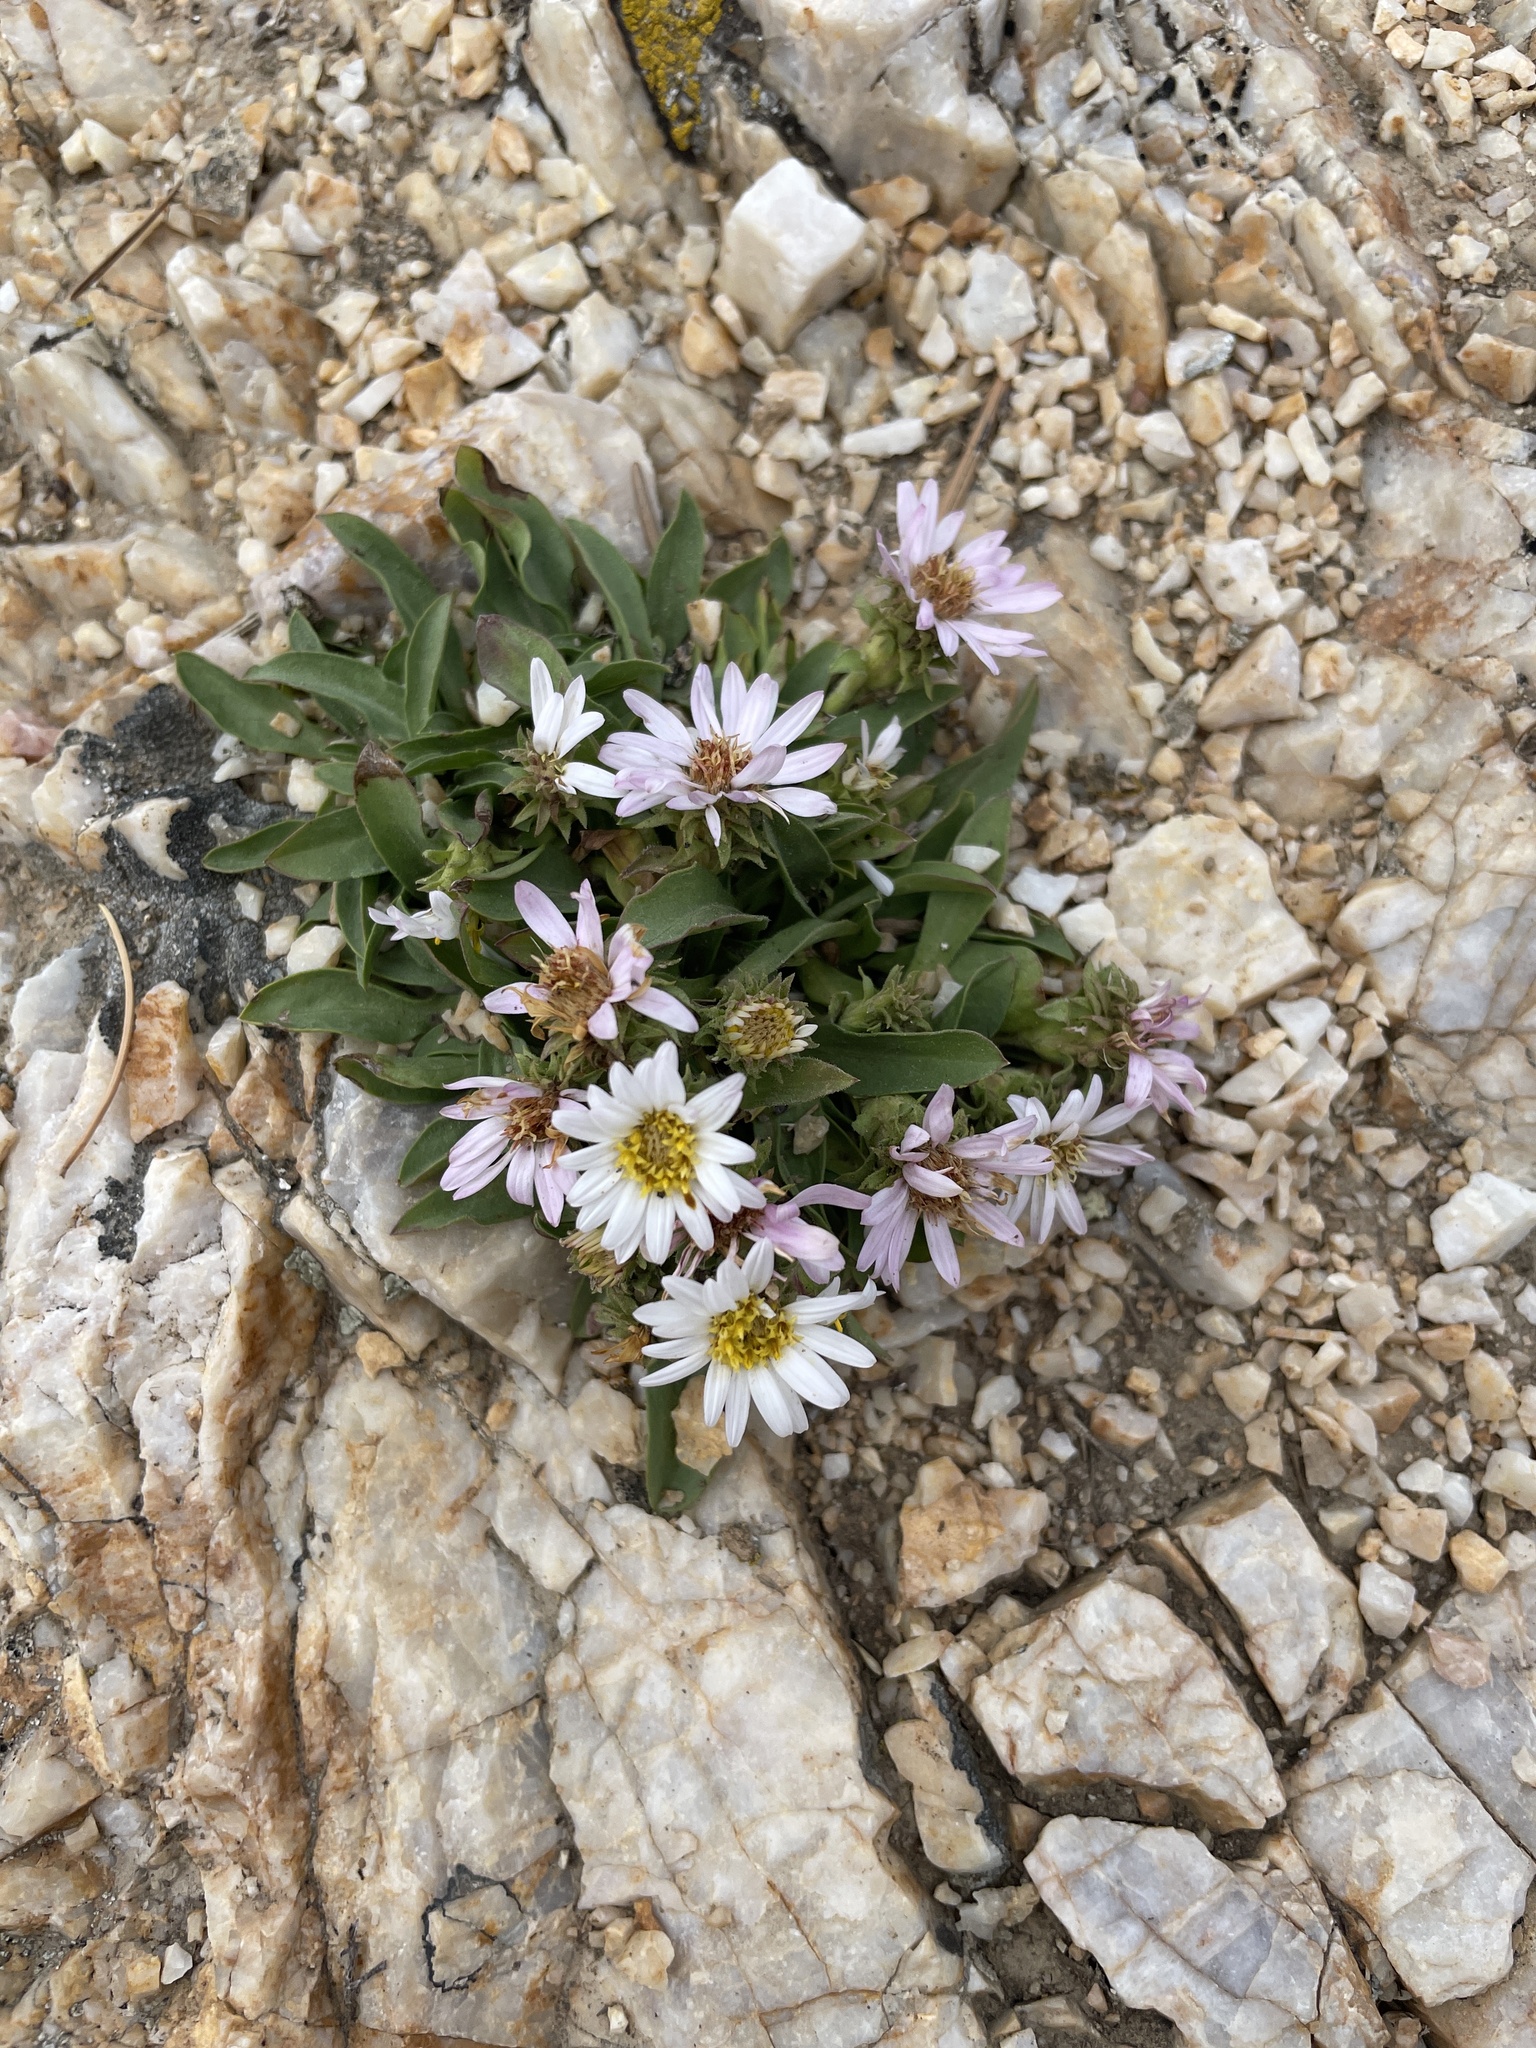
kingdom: Plantae
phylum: Tracheophyta
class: Magnoliopsida
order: Asterales
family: Asteraceae
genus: Eurybia
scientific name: Eurybia kingii
